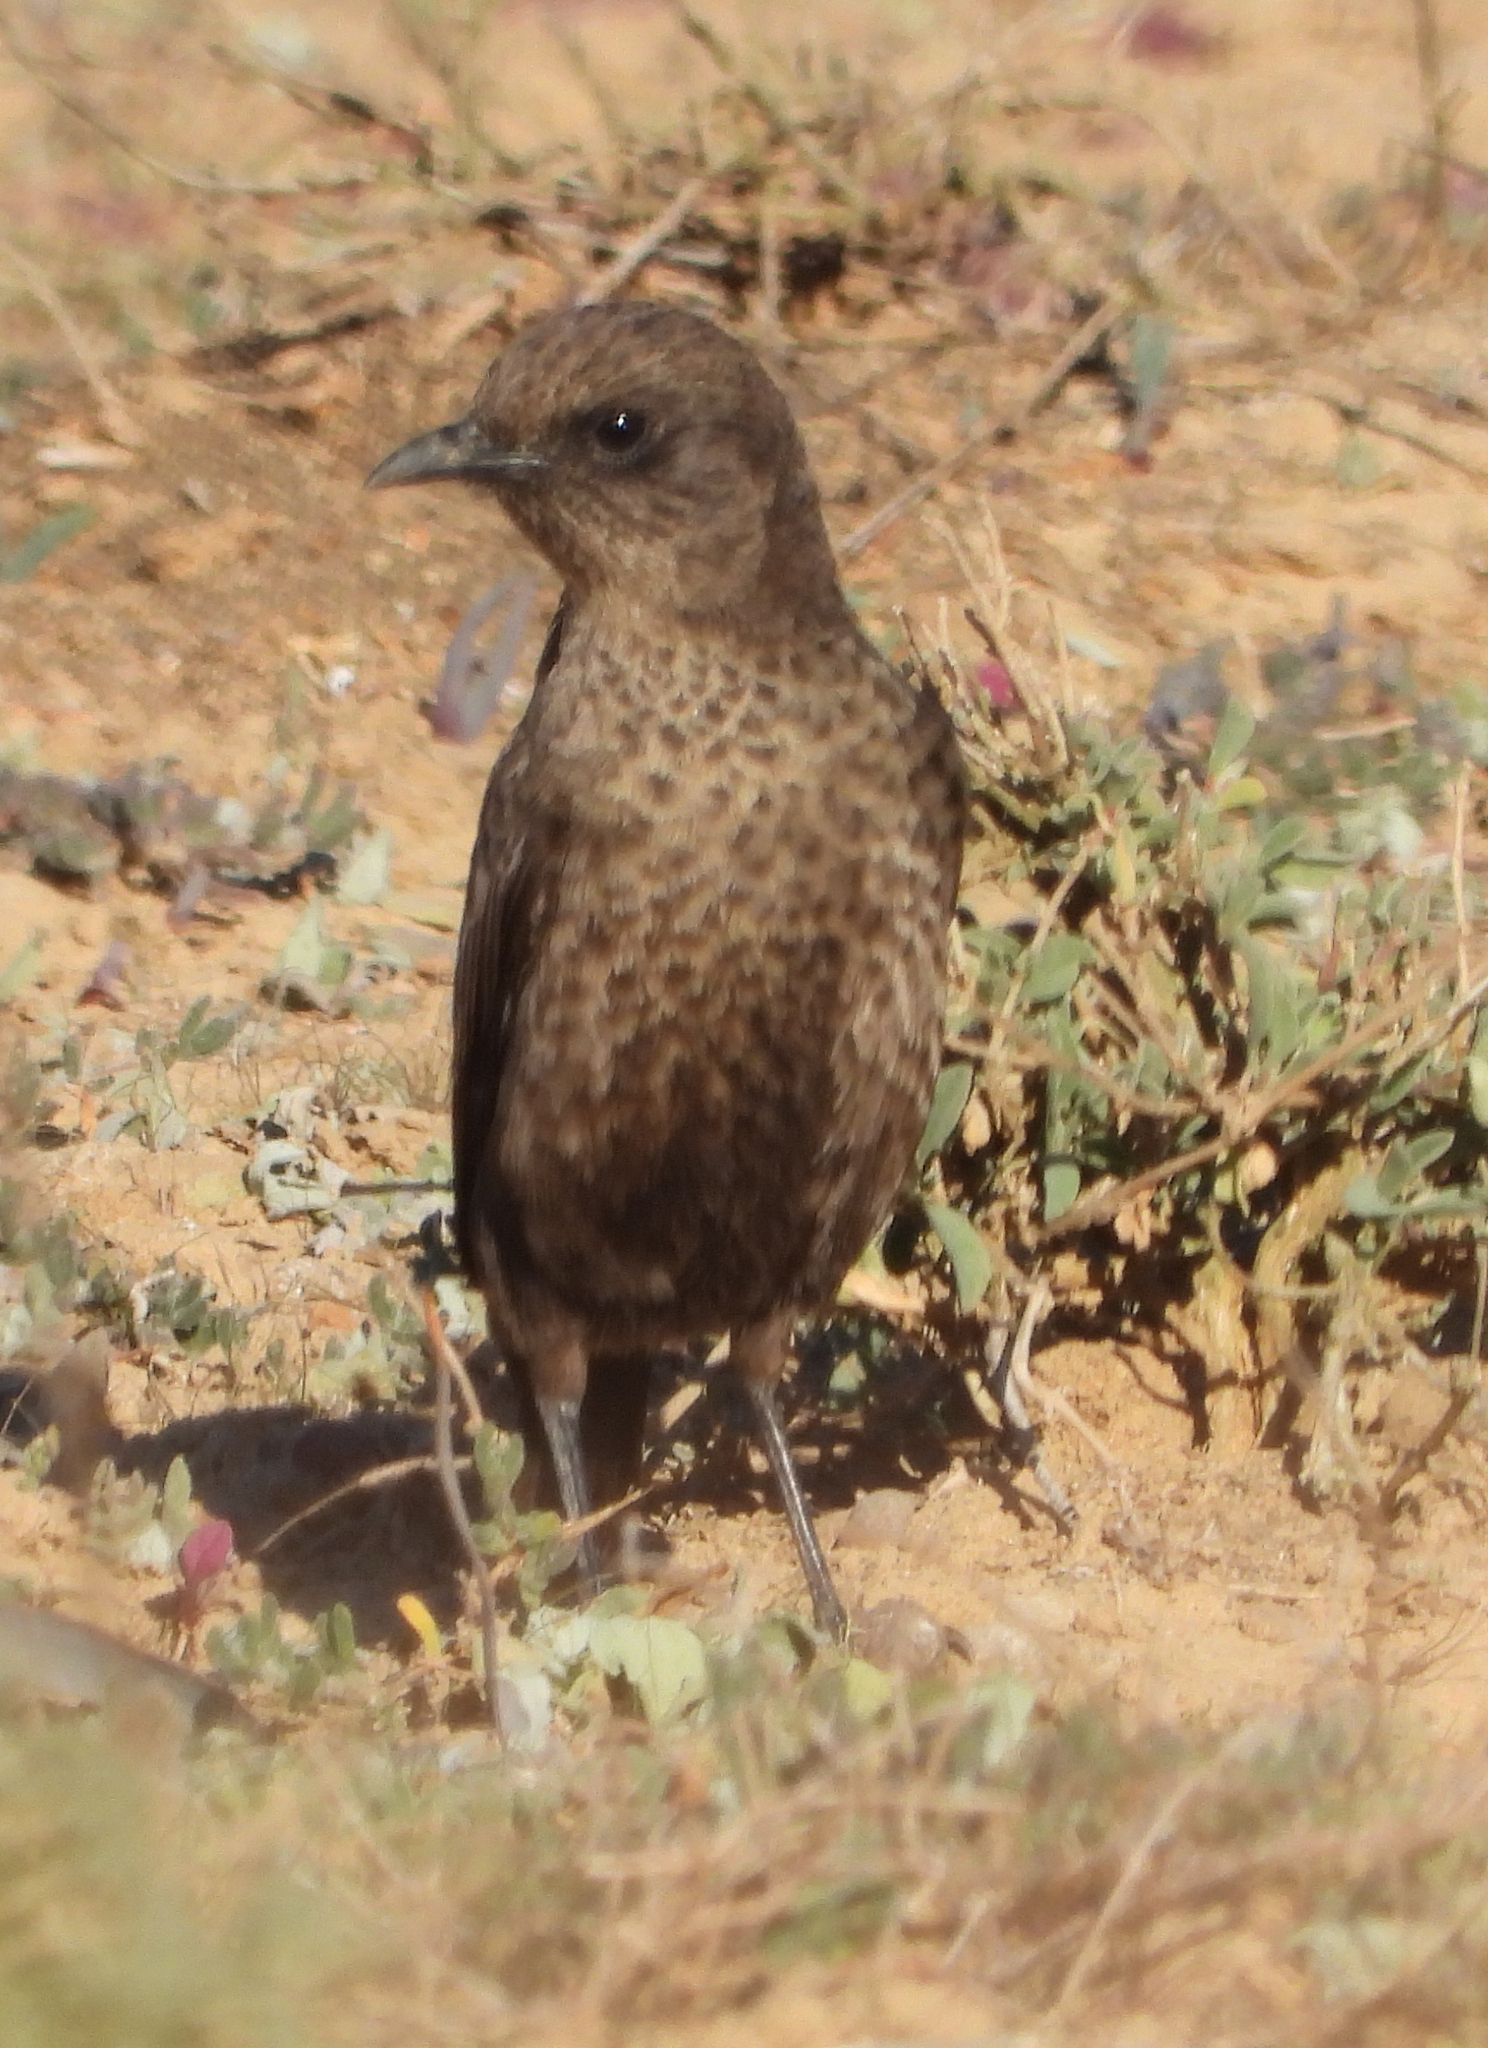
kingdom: Animalia
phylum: Chordata
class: Aves
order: Passeriformes
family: Muscicapidae
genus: Myrmecocichla
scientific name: Myrmecocichla formicivora
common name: Ant-eating chat
